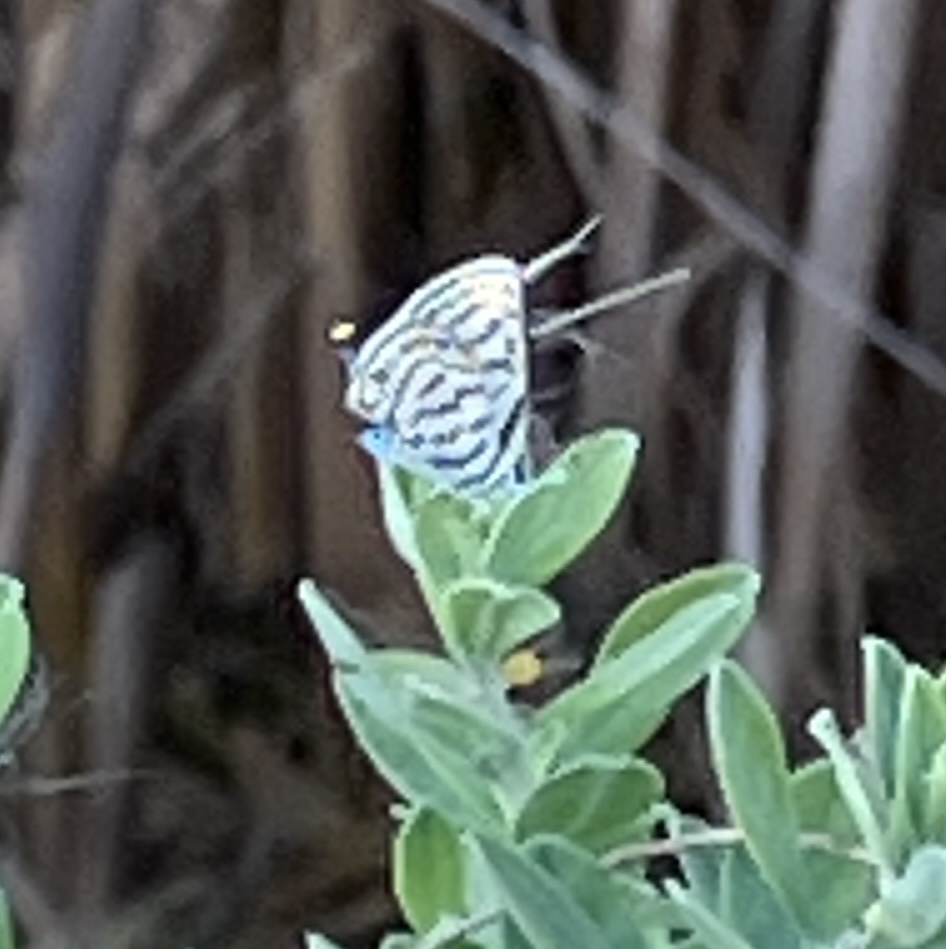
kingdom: Animalia
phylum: Arthropoda
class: Insecta
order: Lepidoptera
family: Lycaenidae
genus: Tarucus
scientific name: Tarucus rosacea
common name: Mediterranean pierrot
